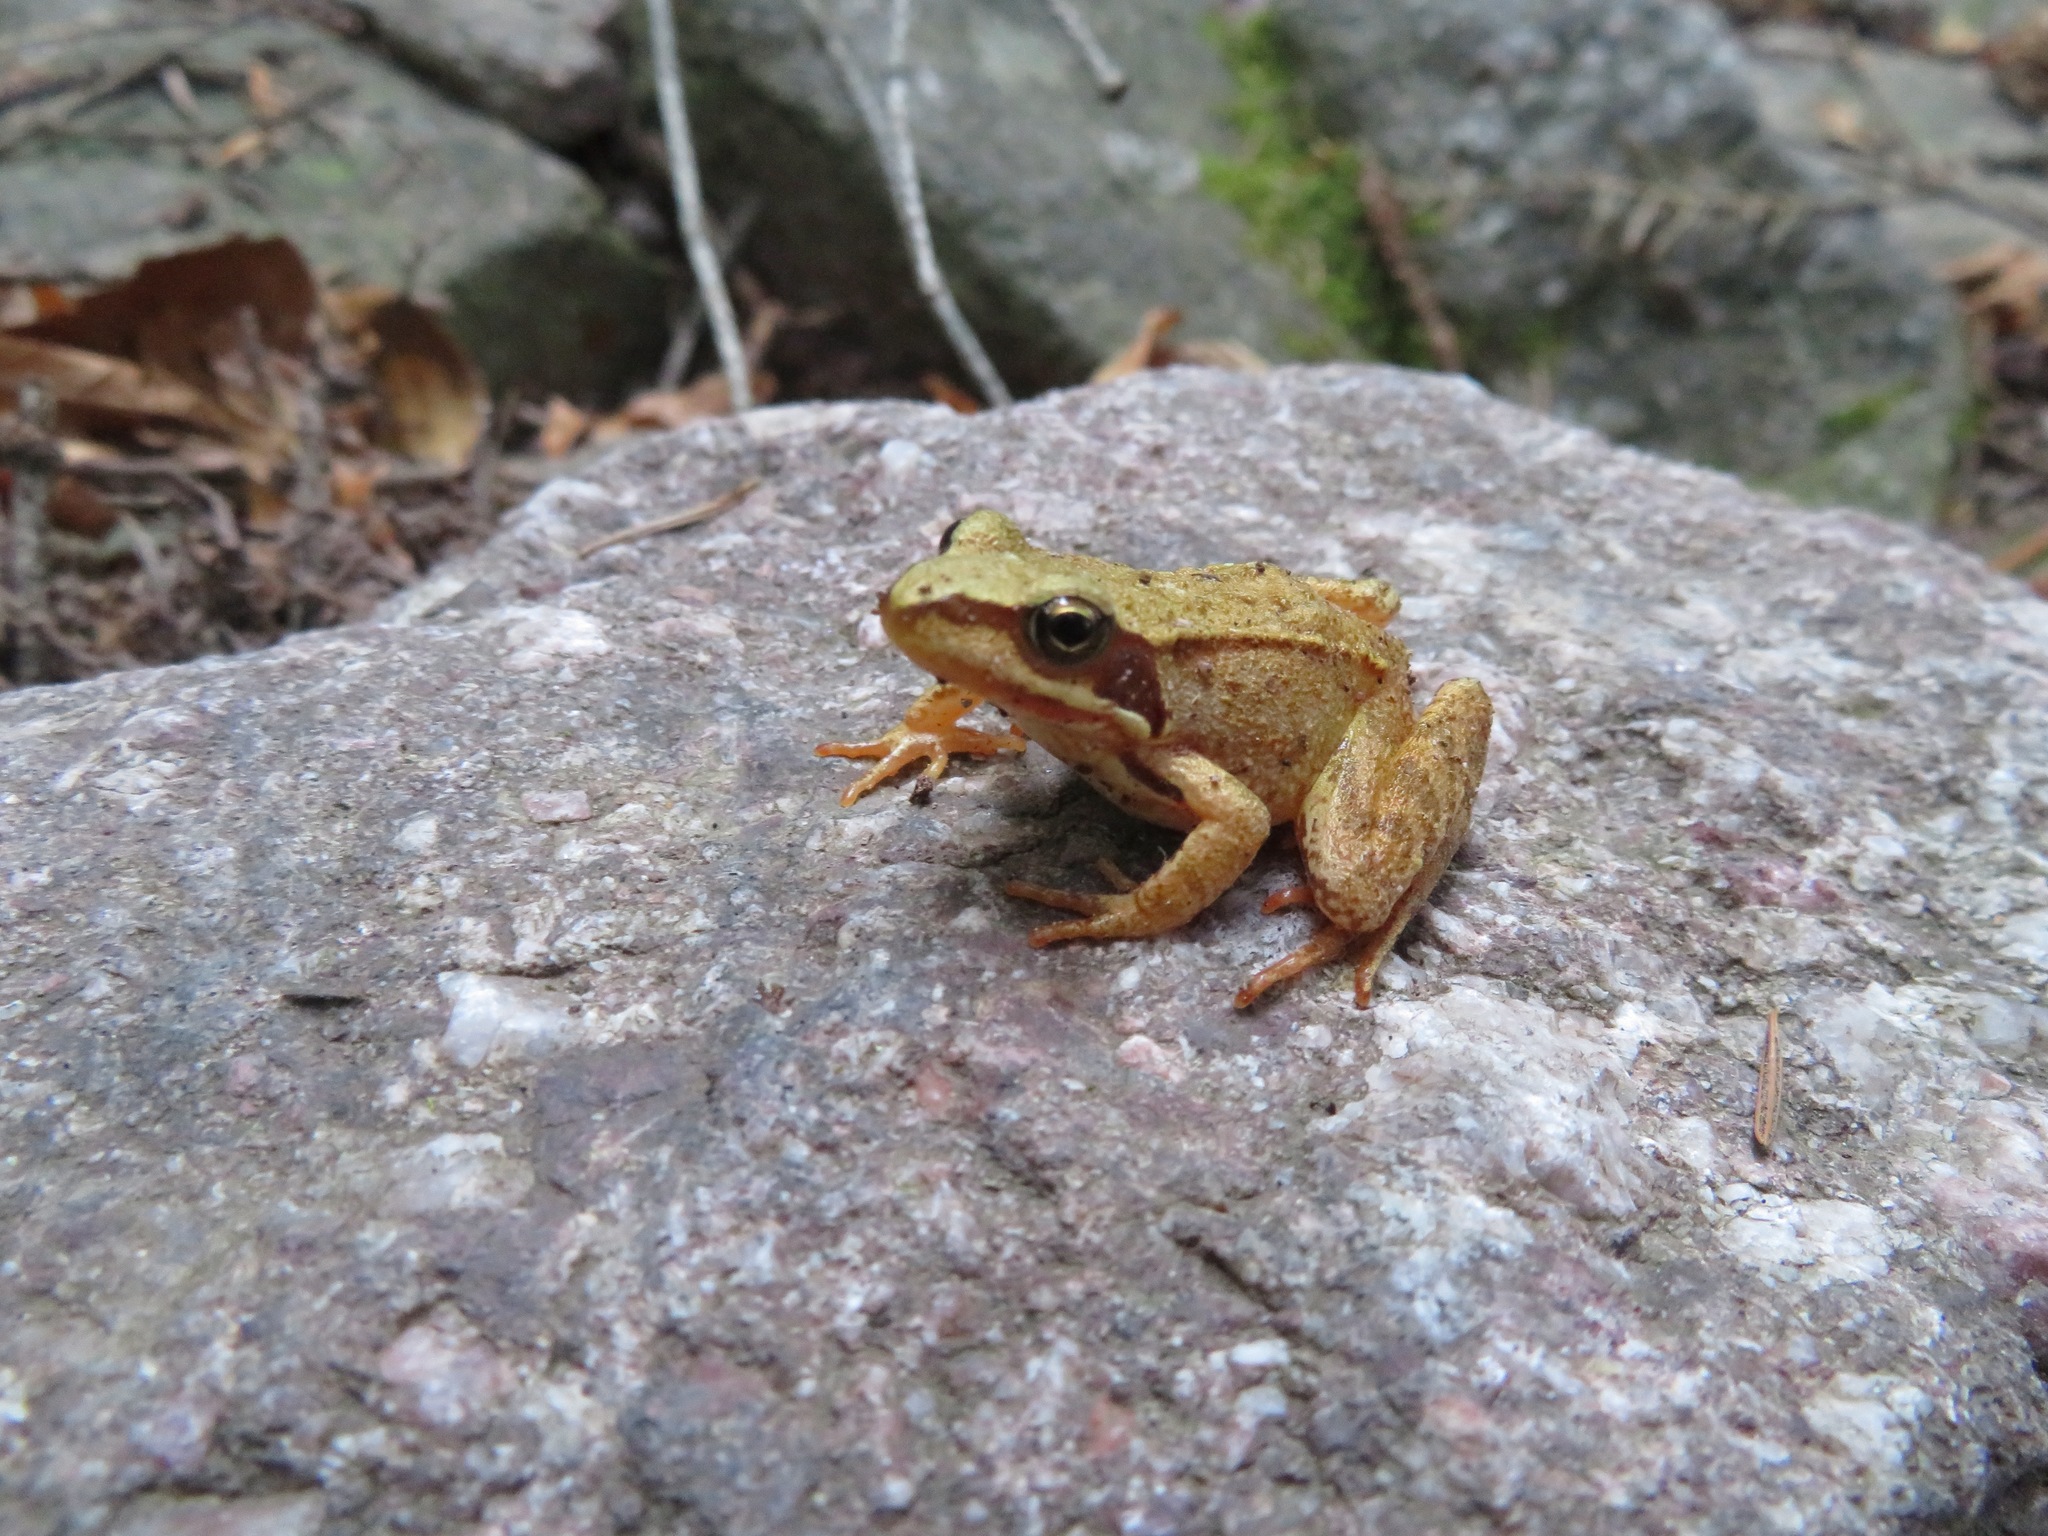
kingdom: Animalia
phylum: Chordata
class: Amphibia
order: Anura
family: Ranidae
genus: Rana
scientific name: Rana temporaria
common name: Common frog
